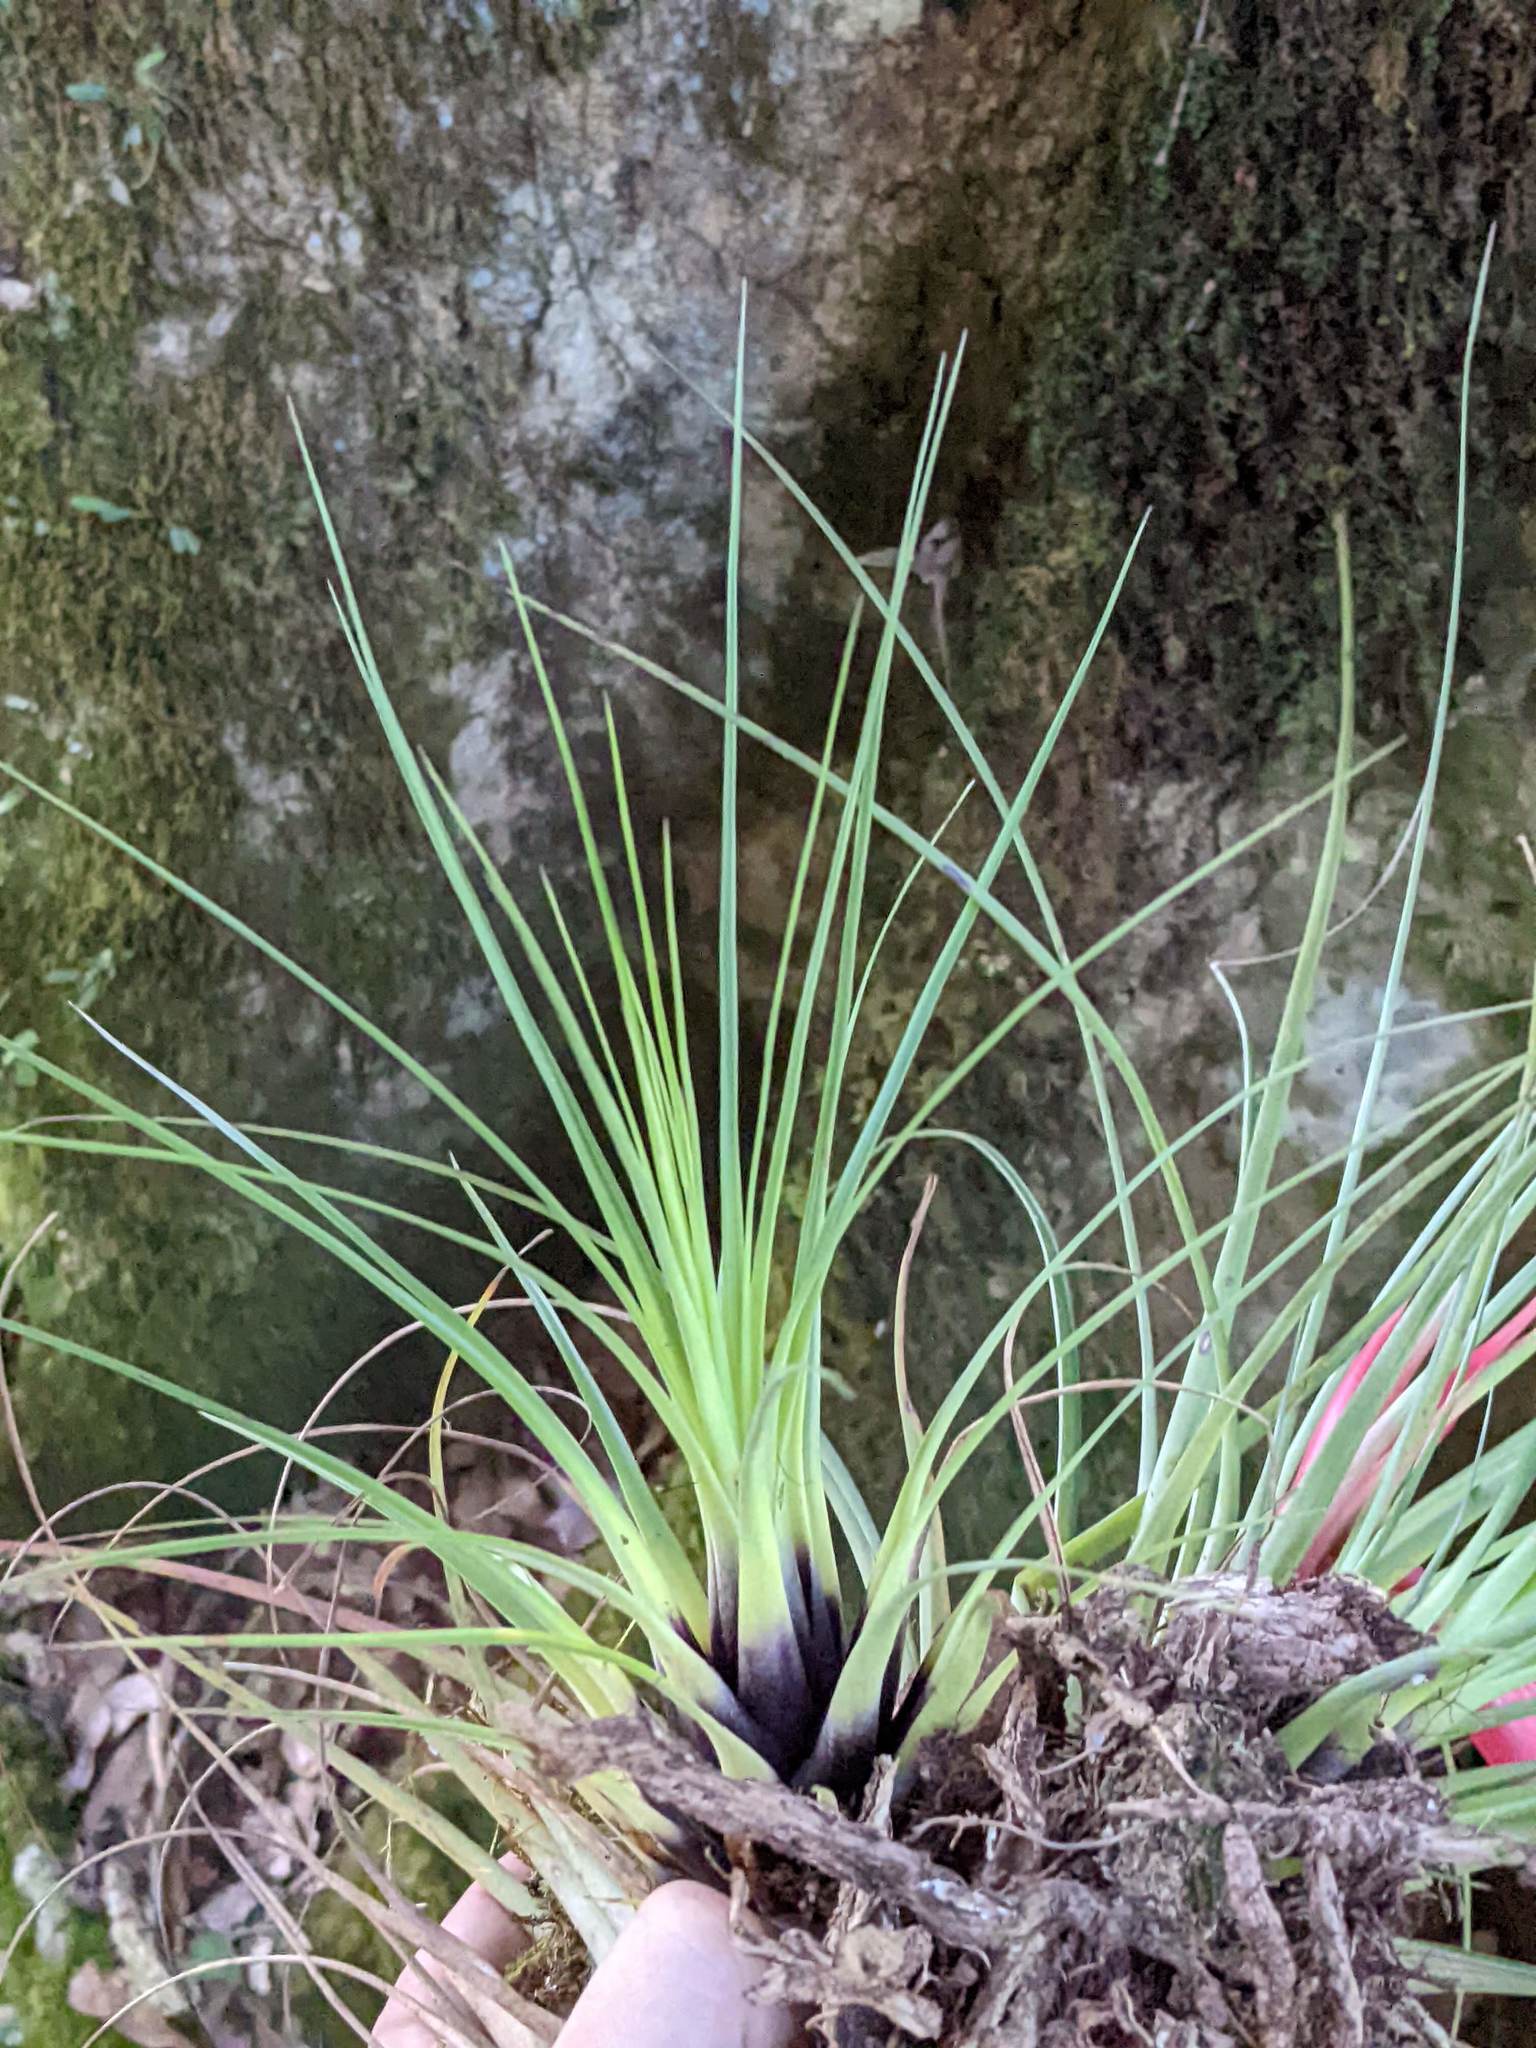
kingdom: Plantae
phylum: Tracheophyta
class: Liliopsida
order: Poales
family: Bromeliaceae
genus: Tillandsia
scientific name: Tillandsia punctulata
